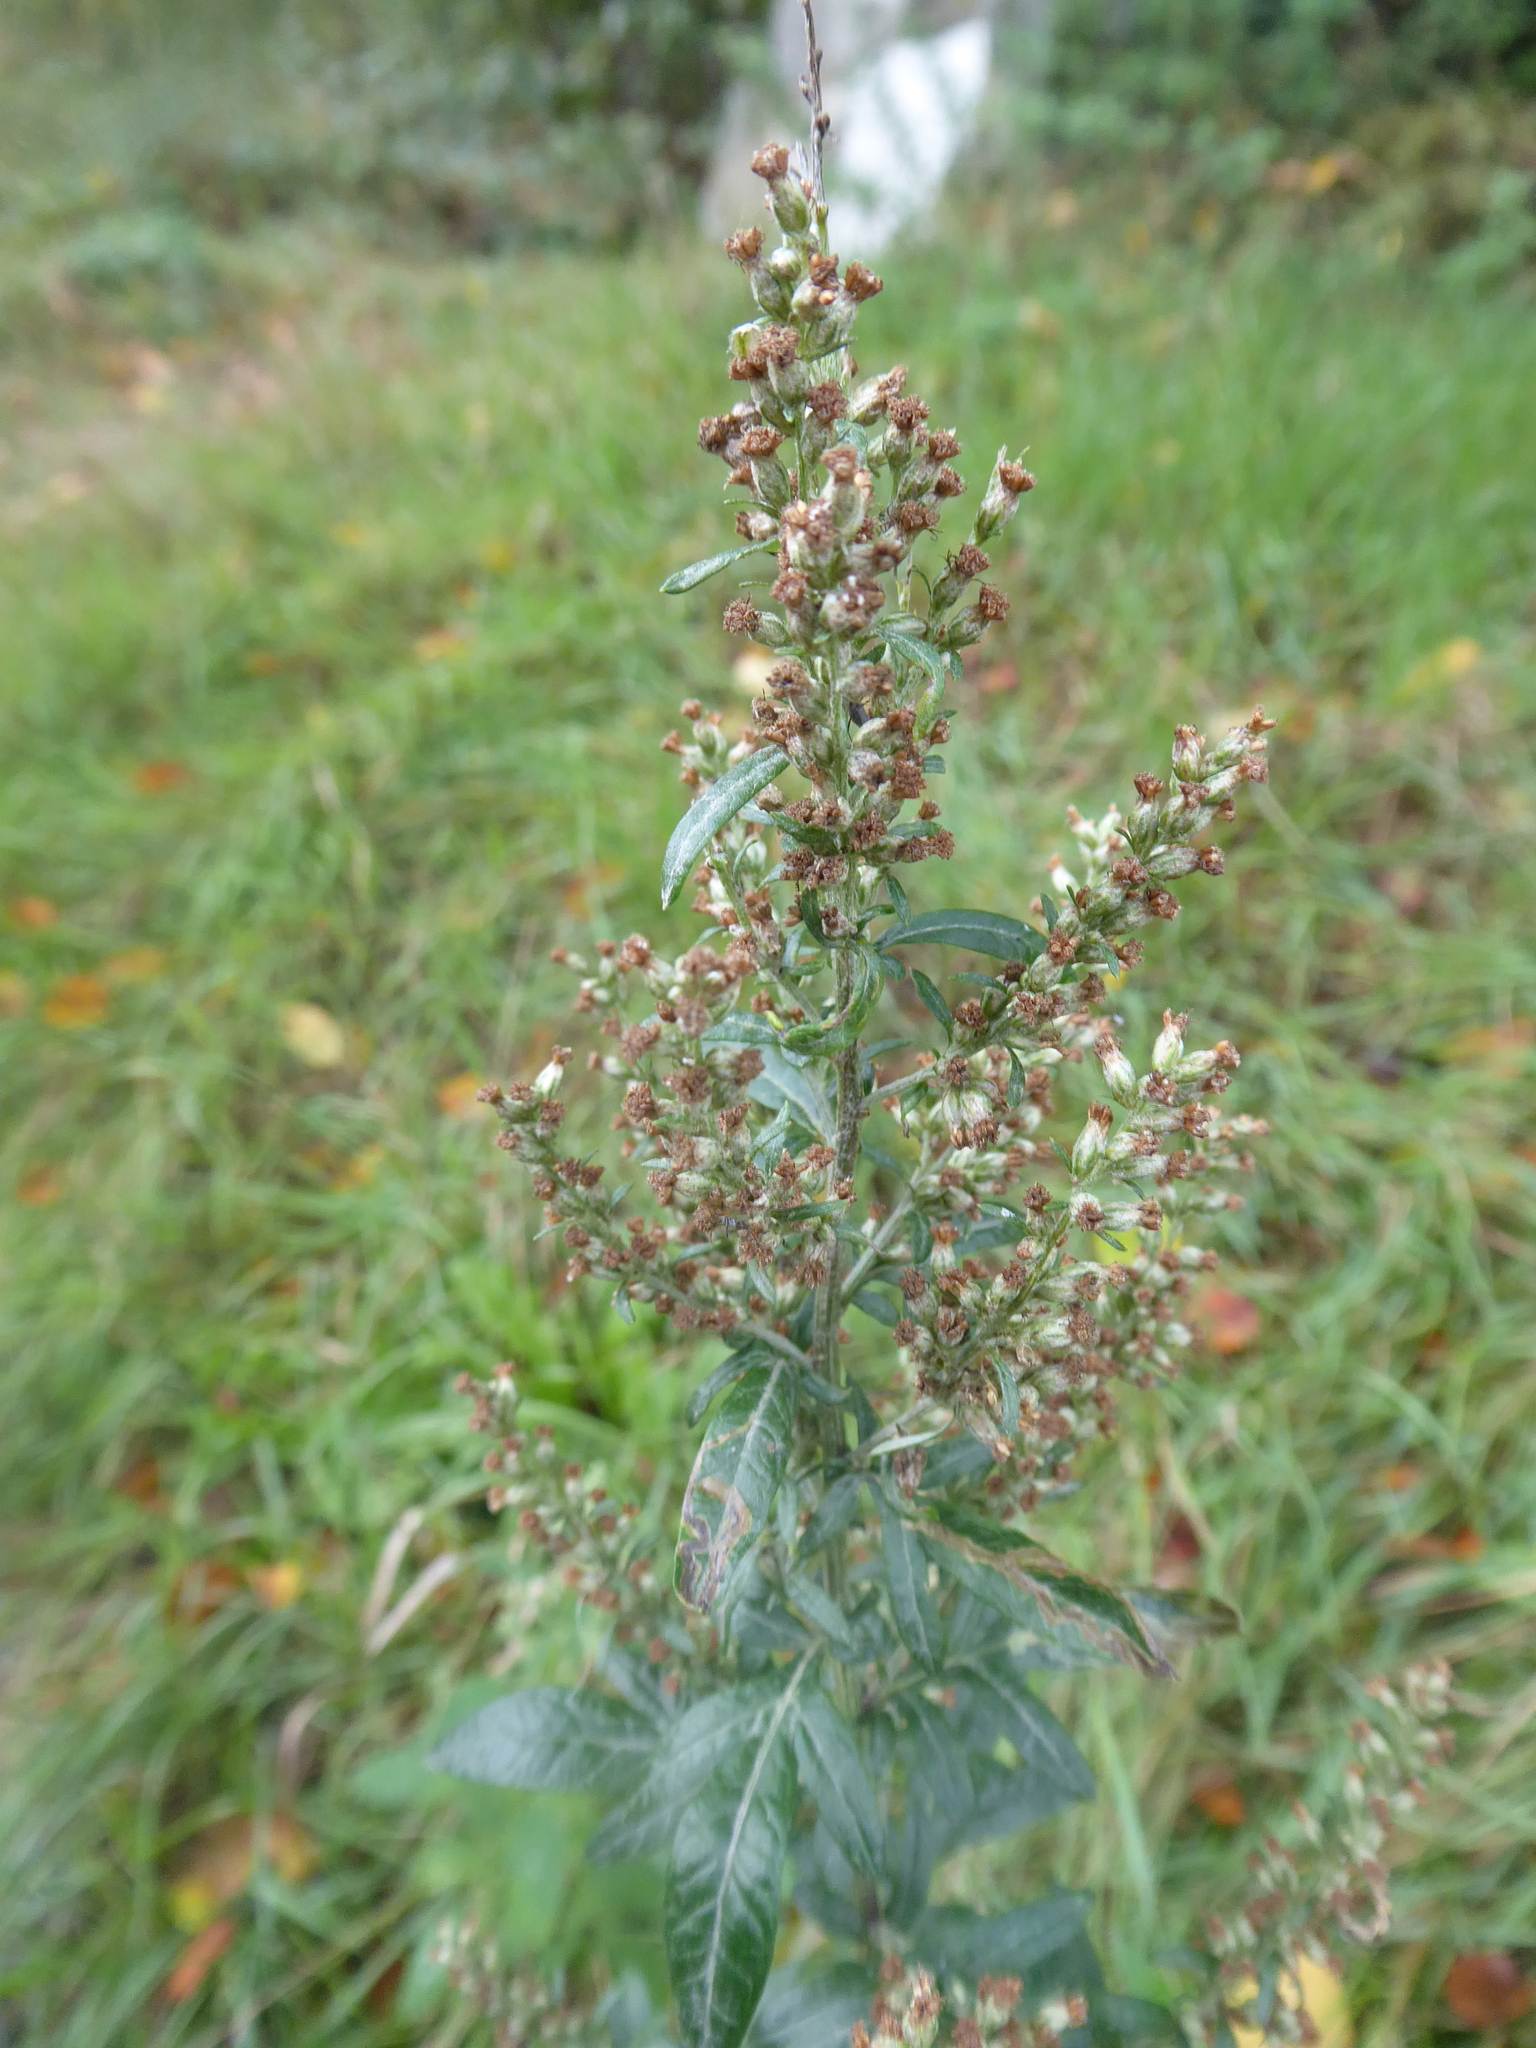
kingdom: Plantae
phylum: Tracheophyta
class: Magnoliopsida
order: Asterales
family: Asteraceae
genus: Artemisia
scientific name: Artemisia vulgaris
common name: Mugwort
